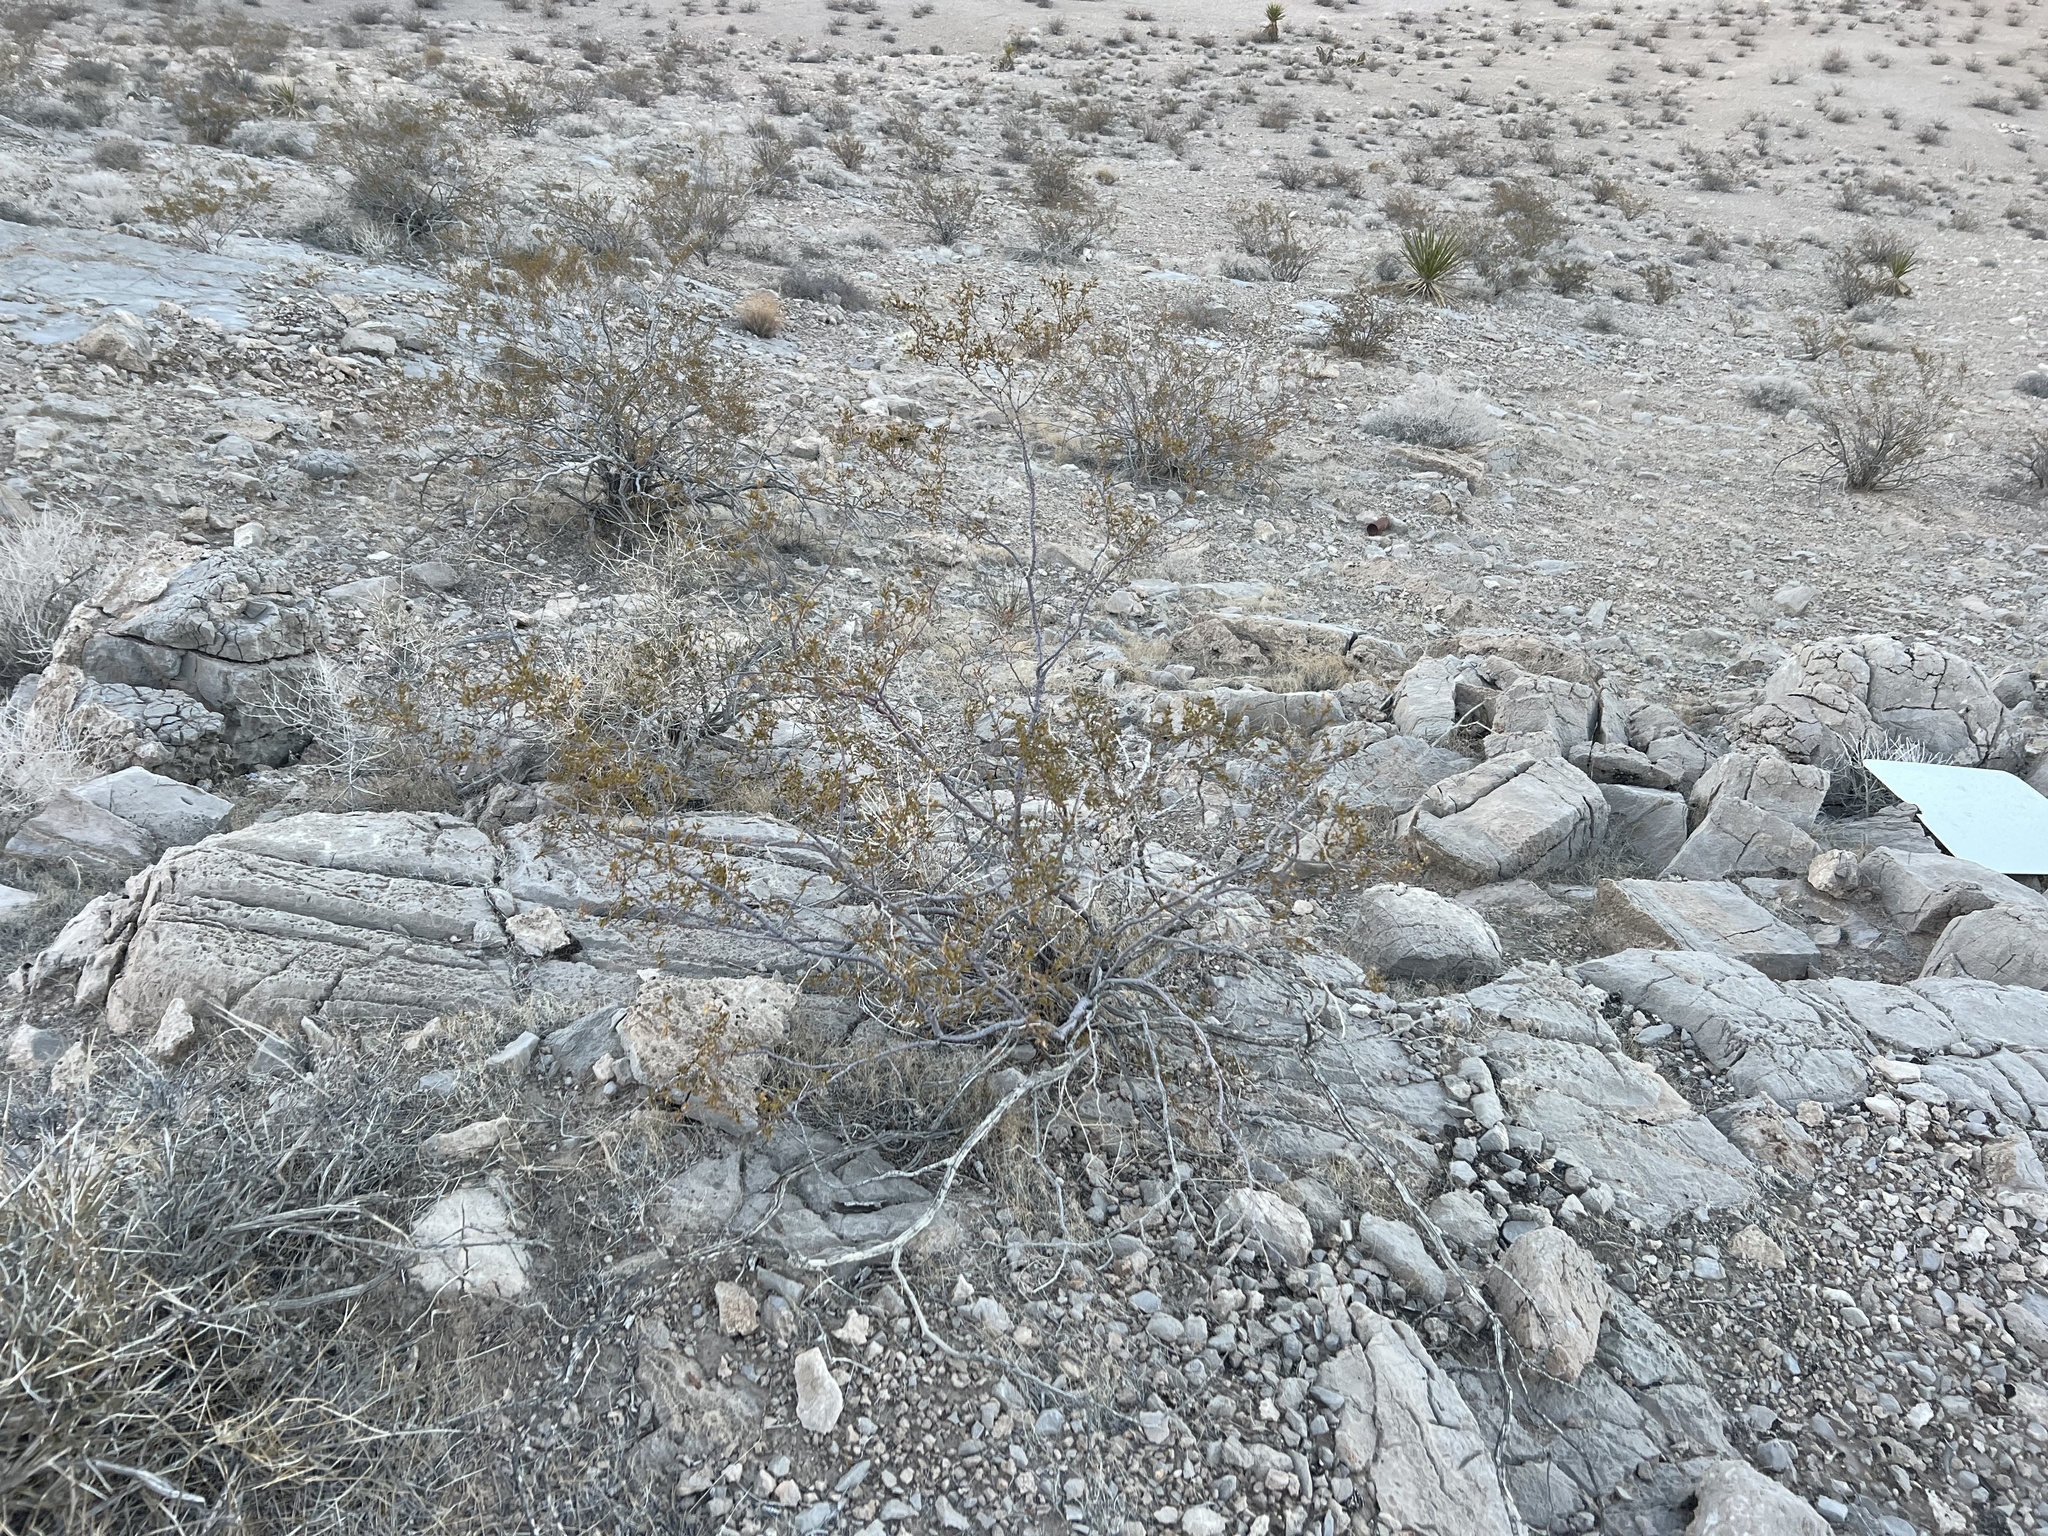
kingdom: Plantae
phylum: Tracheophyta
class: Magnoliopsida
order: Zygophyllales
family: Zygophyllaceae
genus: Larrea
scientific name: Larrea tridentata
